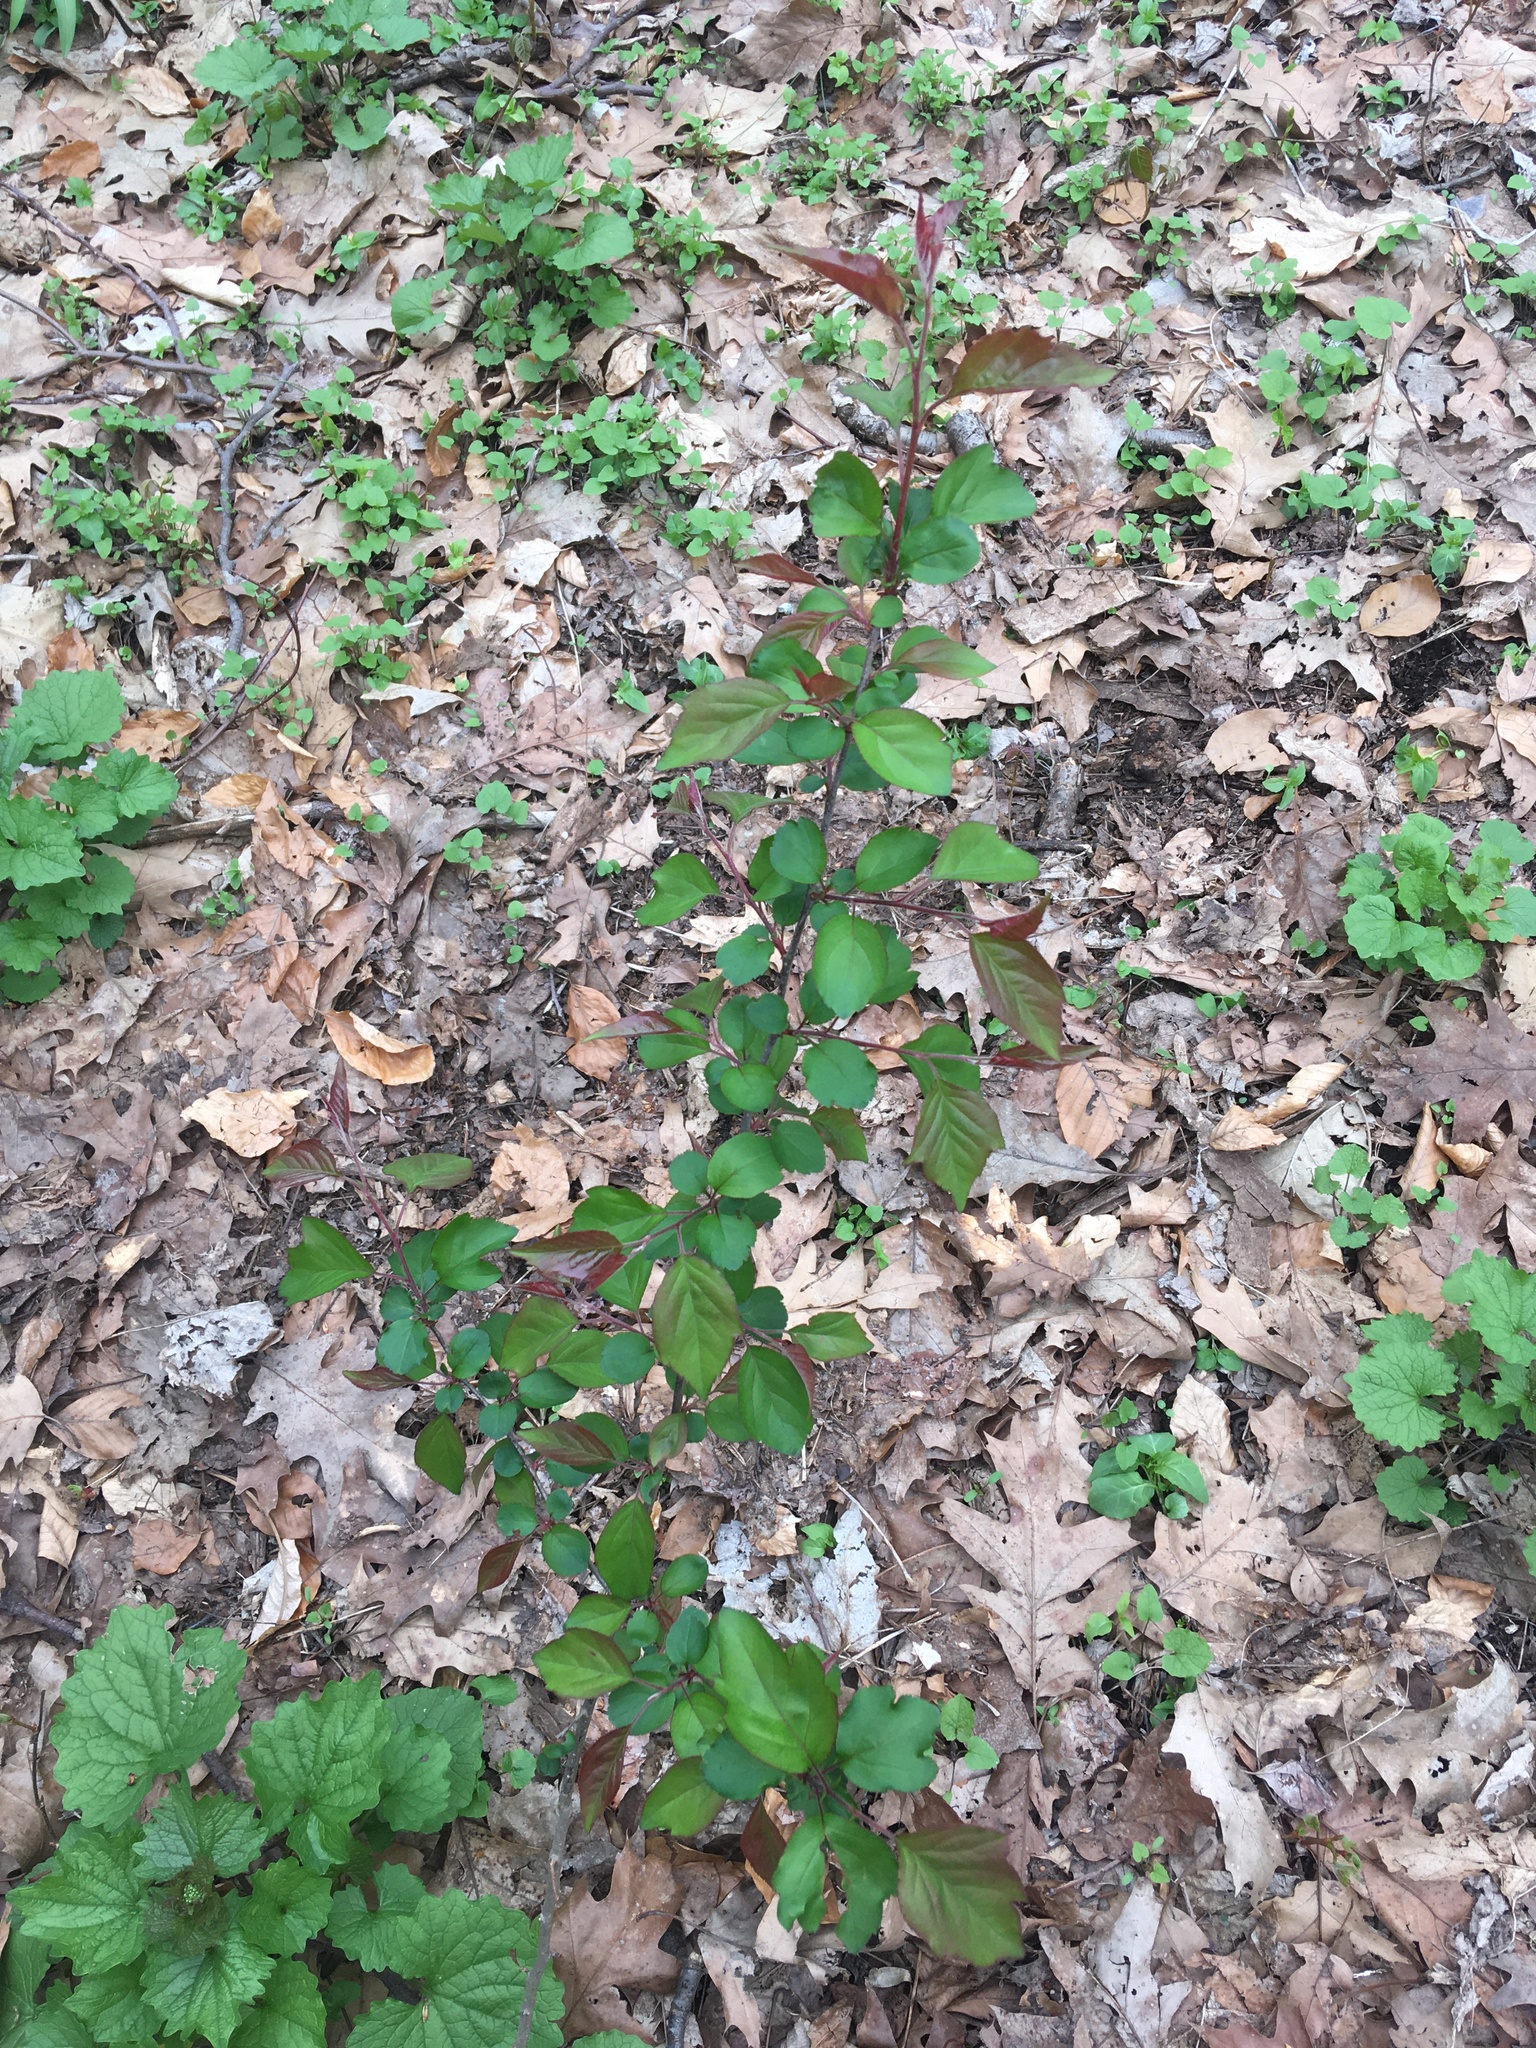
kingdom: Plantae
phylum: Tracheophyta
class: Magnoliopsida
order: Rosales
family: Rosaceae
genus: Malus
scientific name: Malus hupehensis
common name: Chinese crab apple
